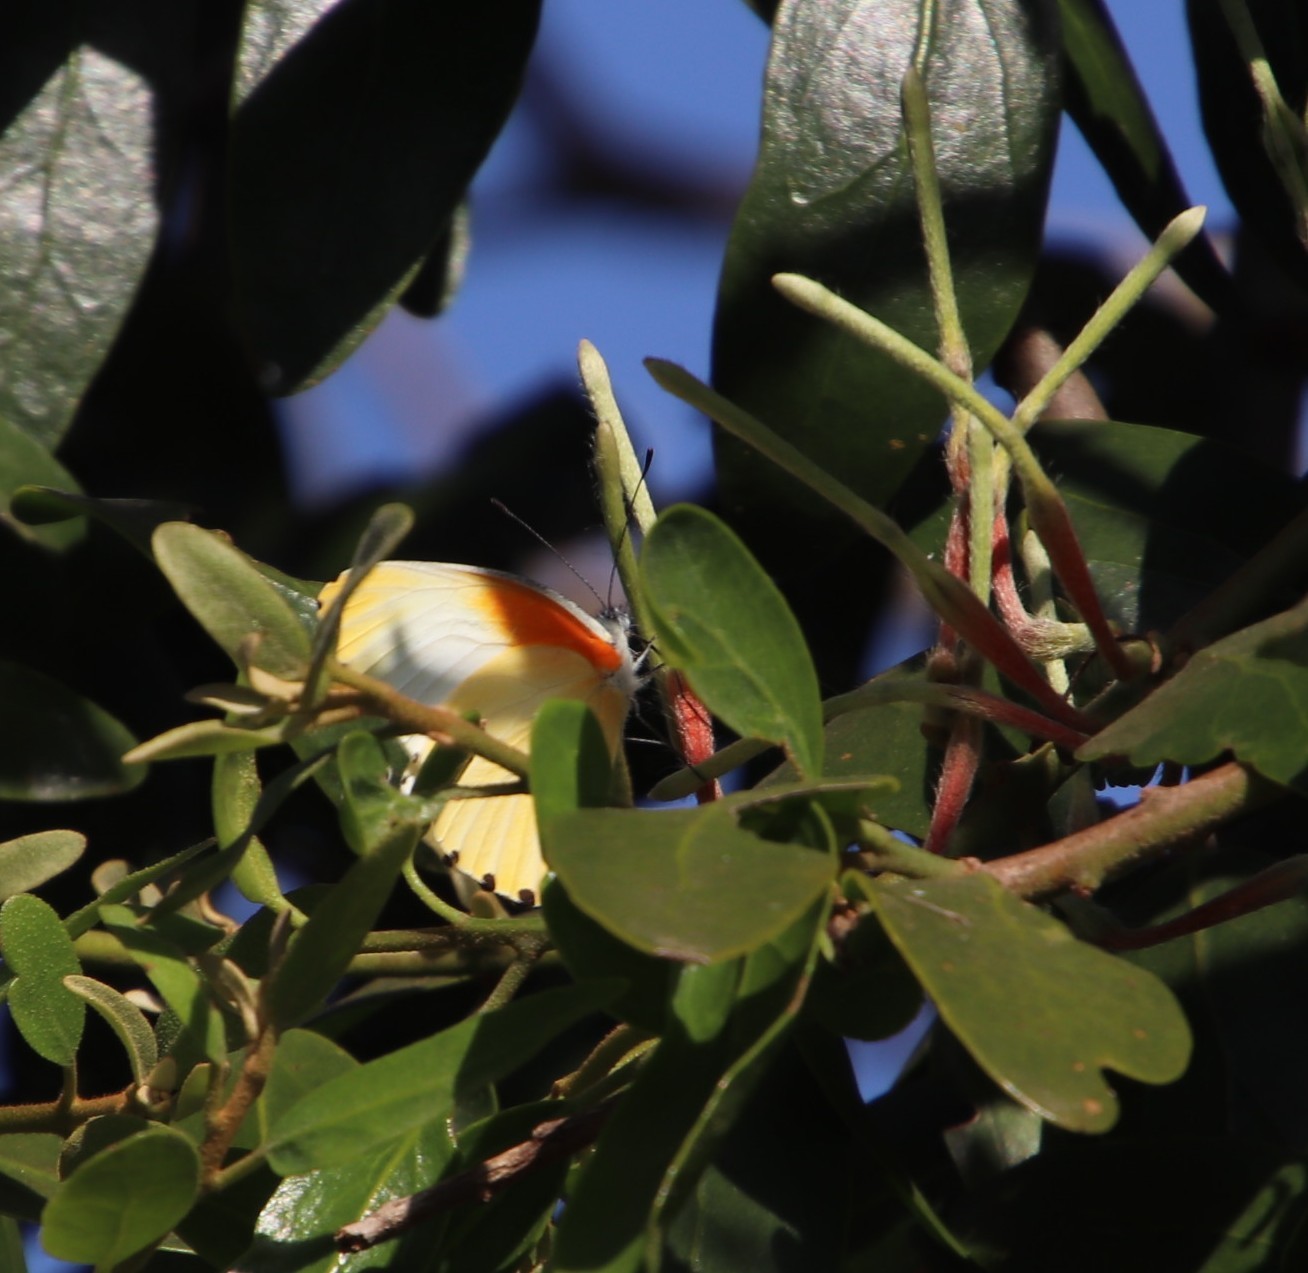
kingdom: Plantae
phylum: Tracheophyta
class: Magnoliopsida
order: Santalales
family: Loranthaceae
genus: Erianthemum
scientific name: Erianthemum dregei
